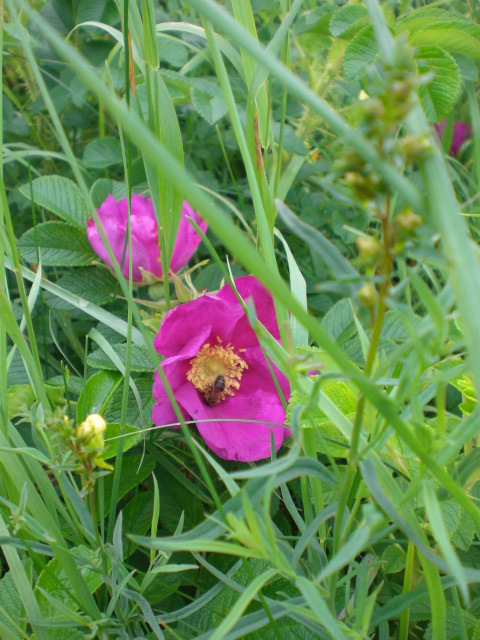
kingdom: Animalia
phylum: Arthropoda
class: Insecta
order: Hymenoptera
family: Apidae
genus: Apis
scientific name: Apis mellifera
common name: Honey bee
